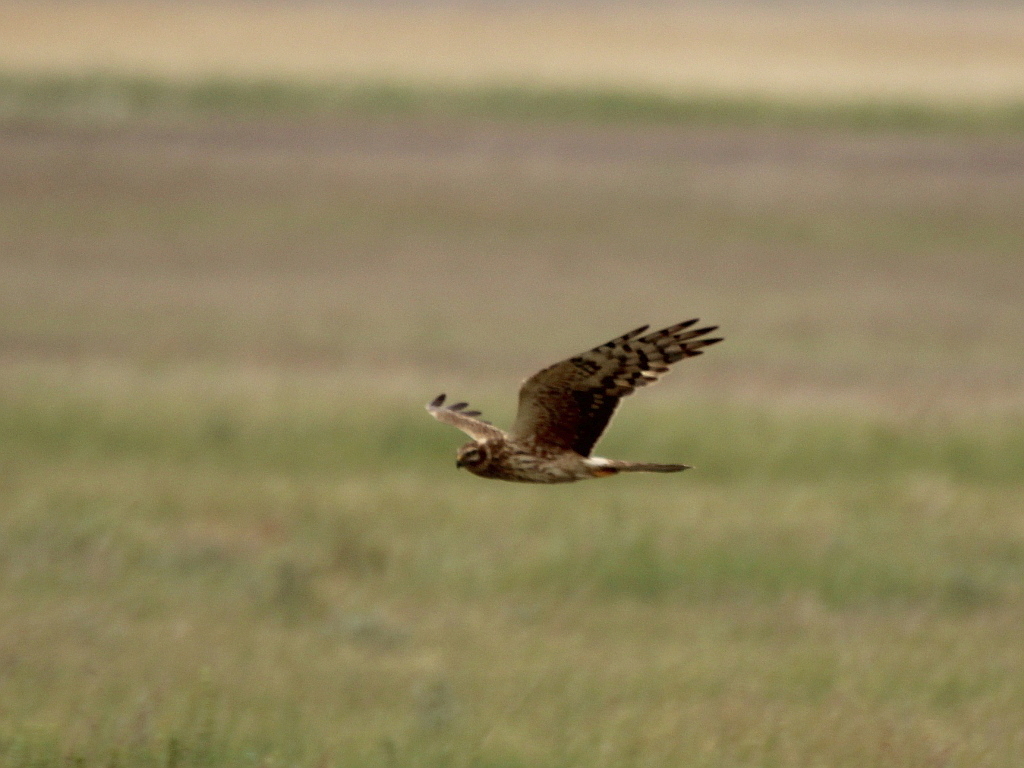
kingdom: Animalia
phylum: Chordata
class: Aves
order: Accipitriformes
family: Accipitridae
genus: Circus
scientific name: Circus cyaneus
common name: Hen harrier
